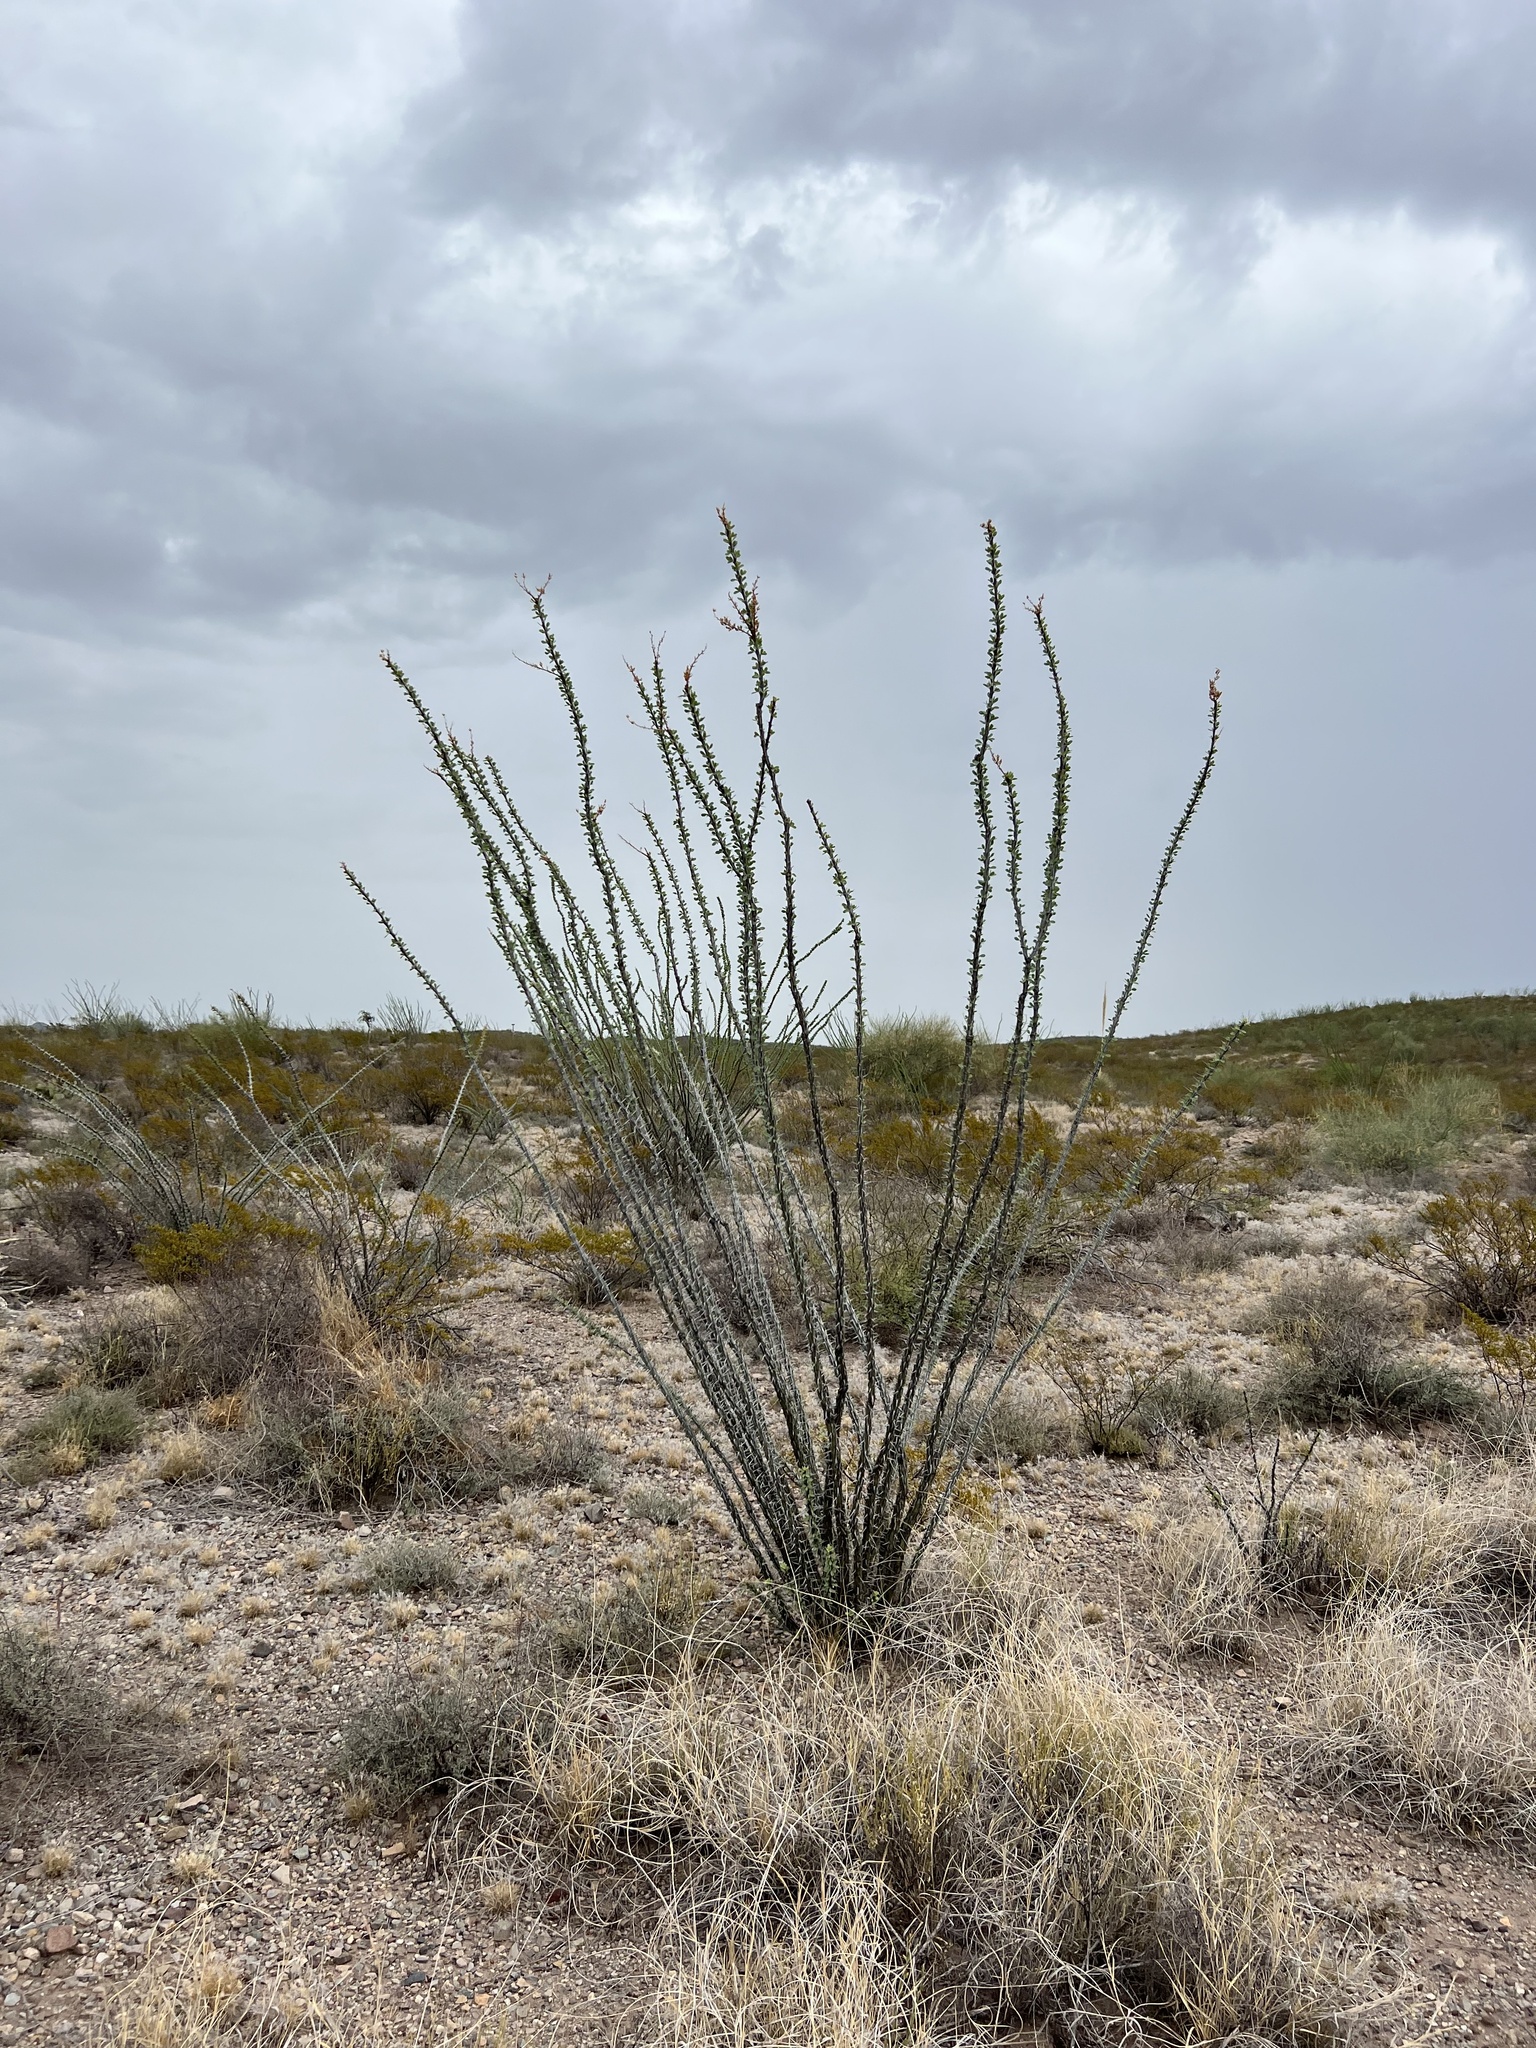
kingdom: Plantae
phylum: Tracheophyta
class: Magnoliopsida
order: Ericales
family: Fouquieriaceae
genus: Fouquieria
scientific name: Fouquieria splendens
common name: Vine-cactus
